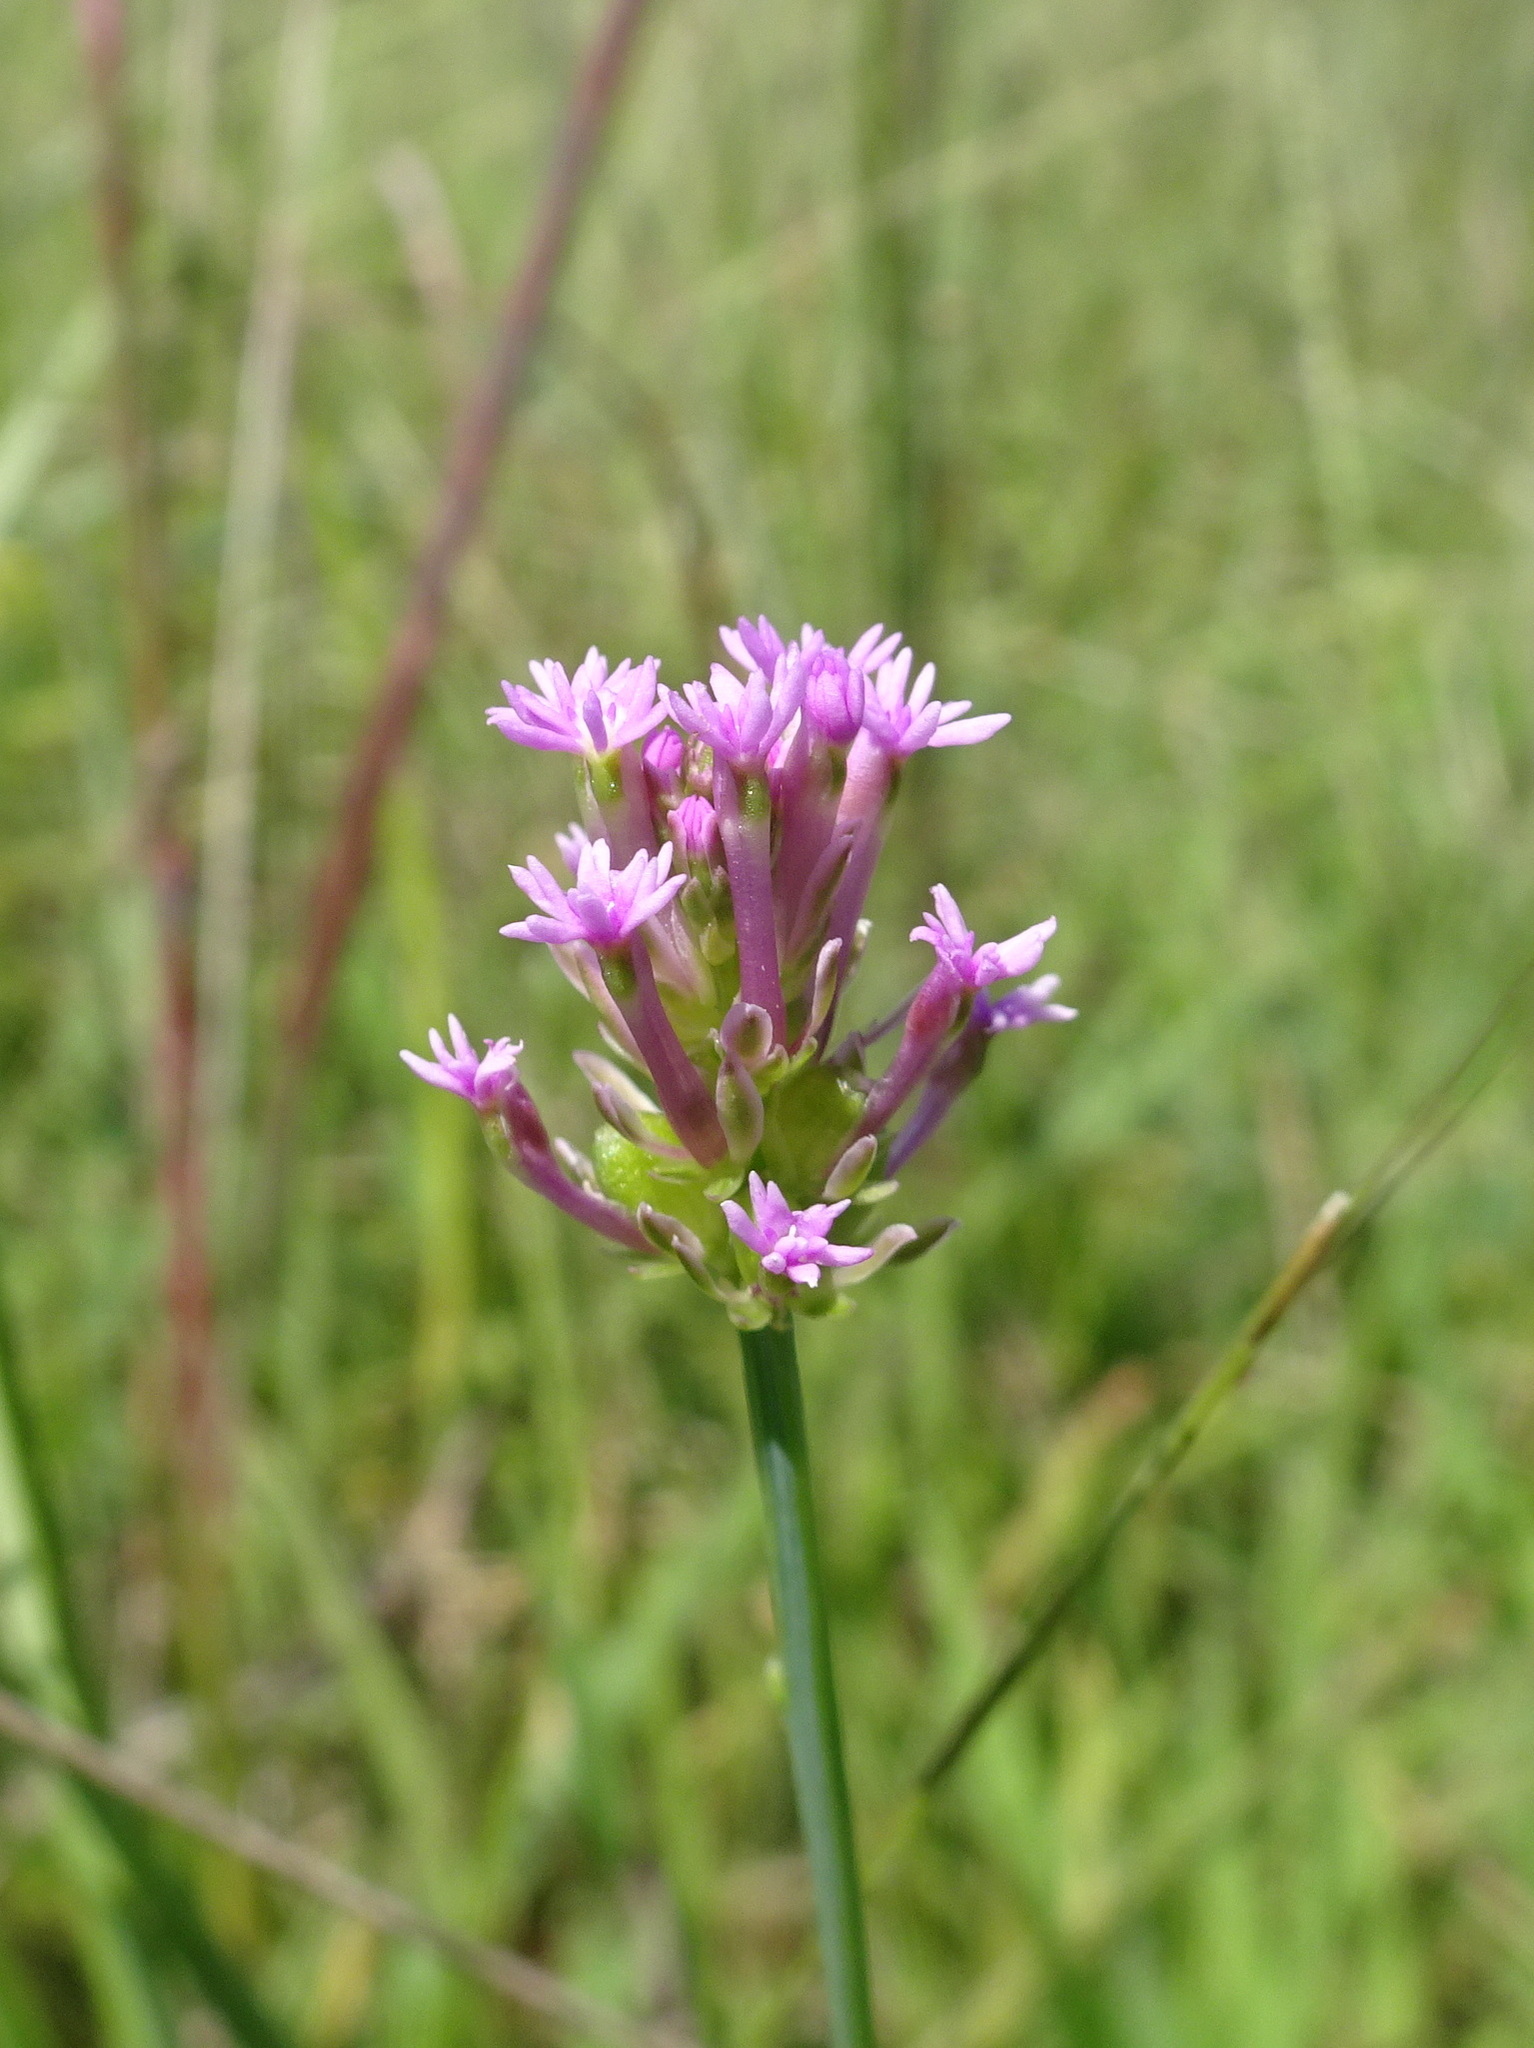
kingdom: Plantae
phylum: Tracheophyta
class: Magnoliopsida
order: Fabales
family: Polygalaceae
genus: Polygala
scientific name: Polygala incarnata
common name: Pink milkwort
